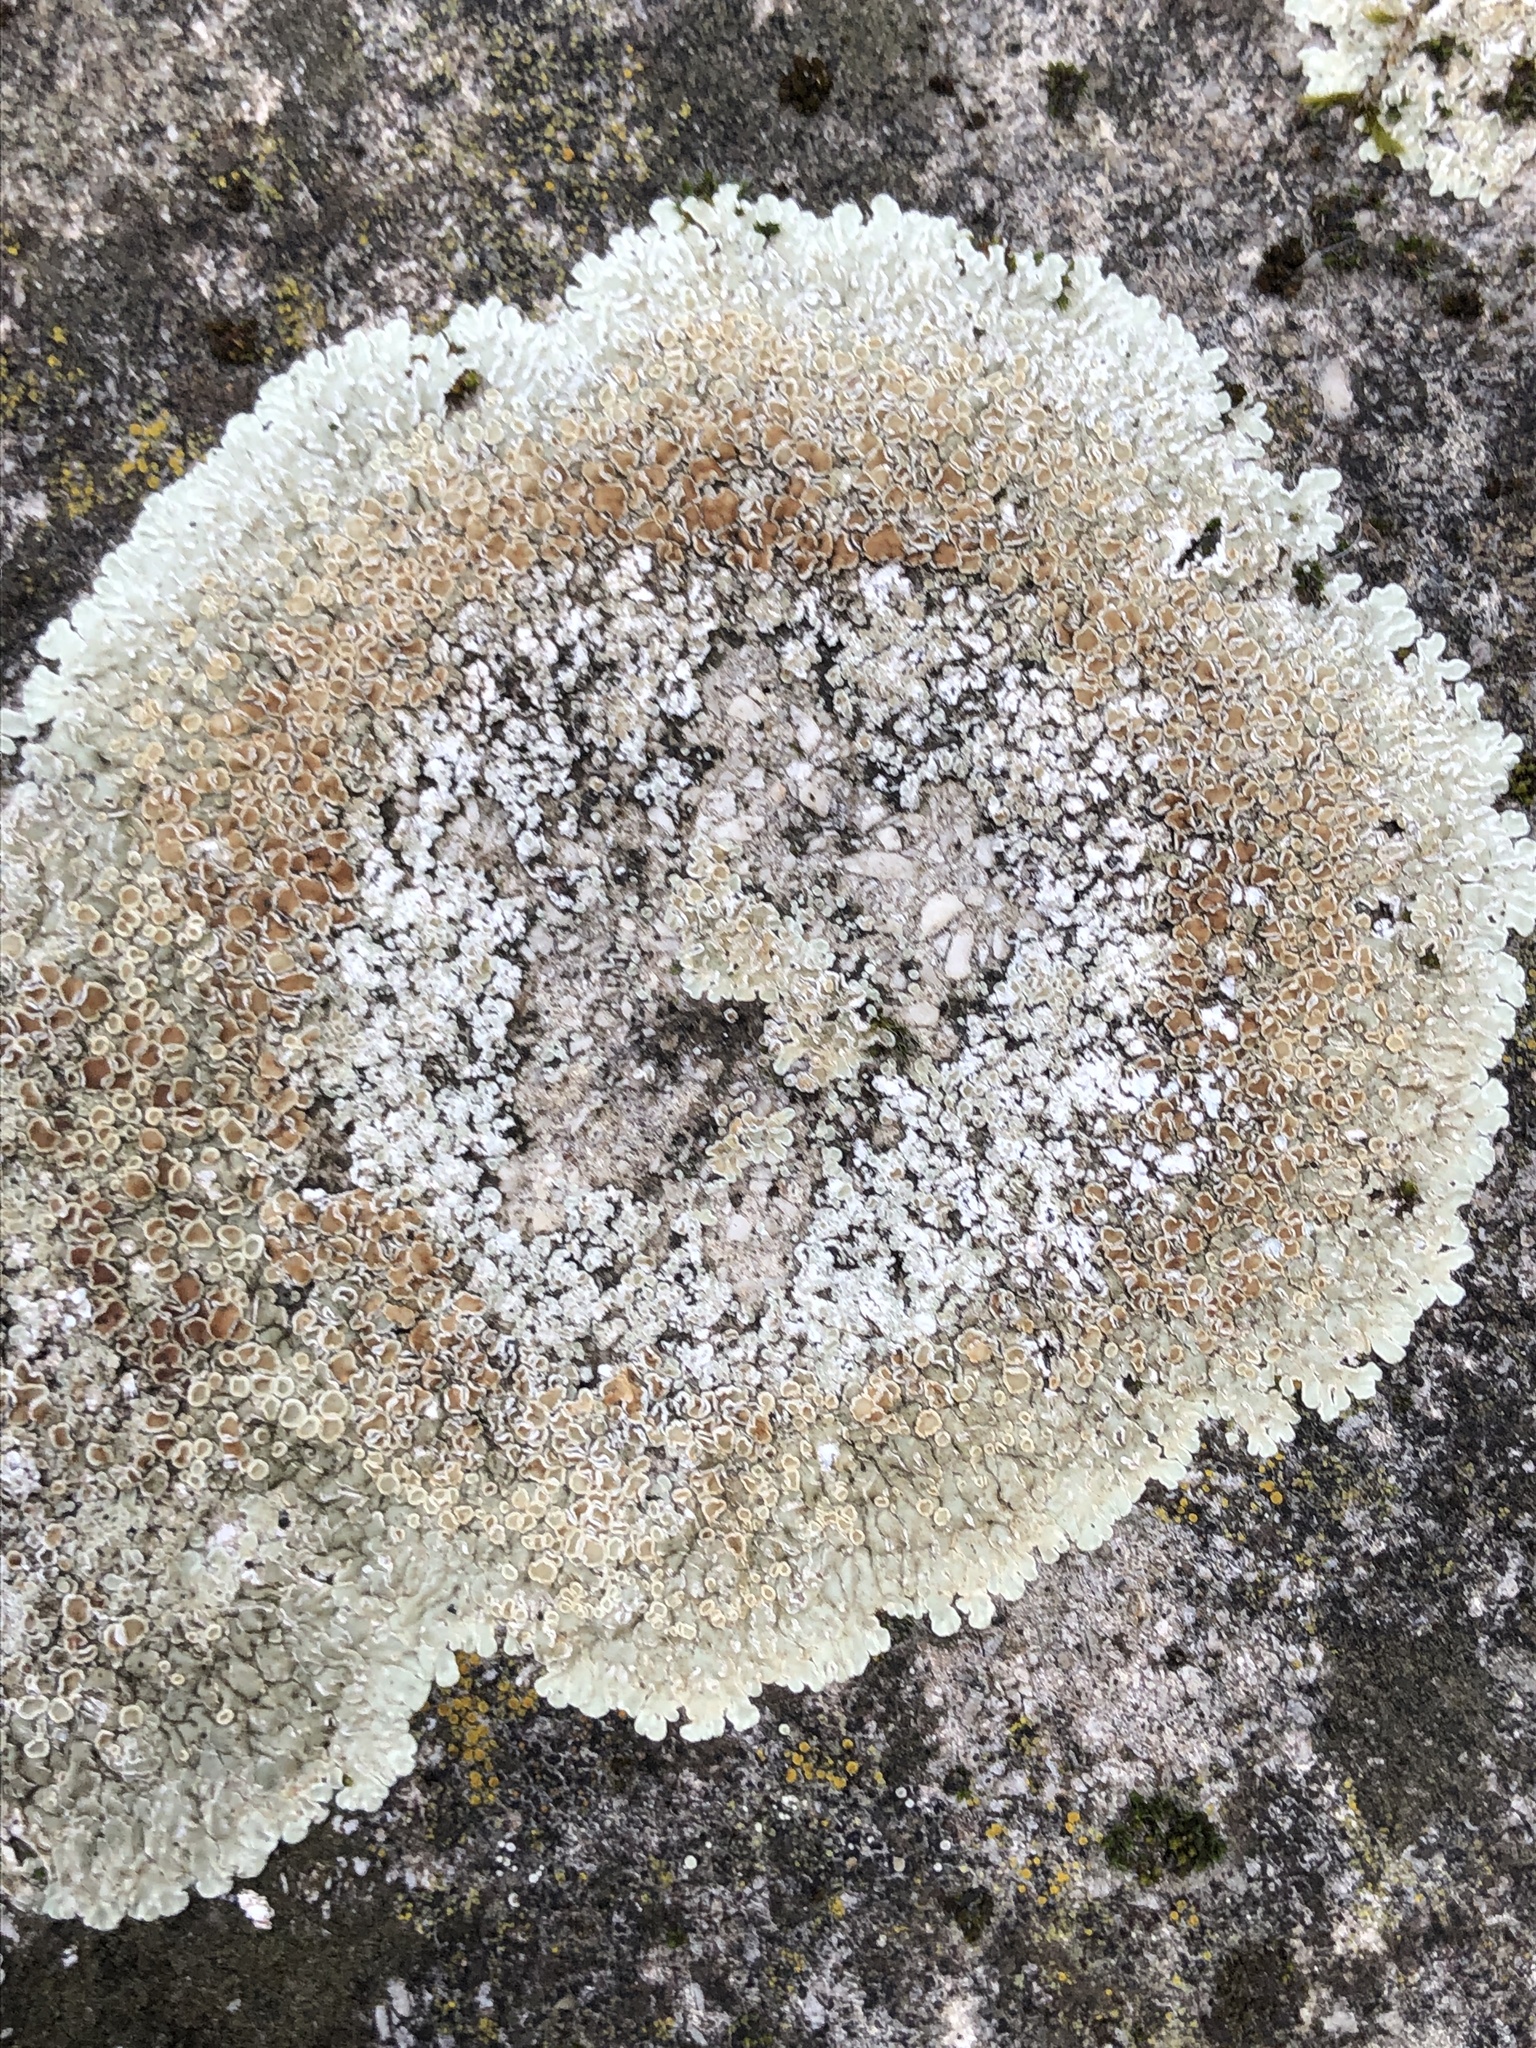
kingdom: Fungi
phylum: Ascomycota
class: Lecanoromycetes
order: Lecanorales
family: Lecanoraceae
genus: Protoparmeliopsis
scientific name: Protoparmeliopsis muralis
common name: Stonewall rim lichen
